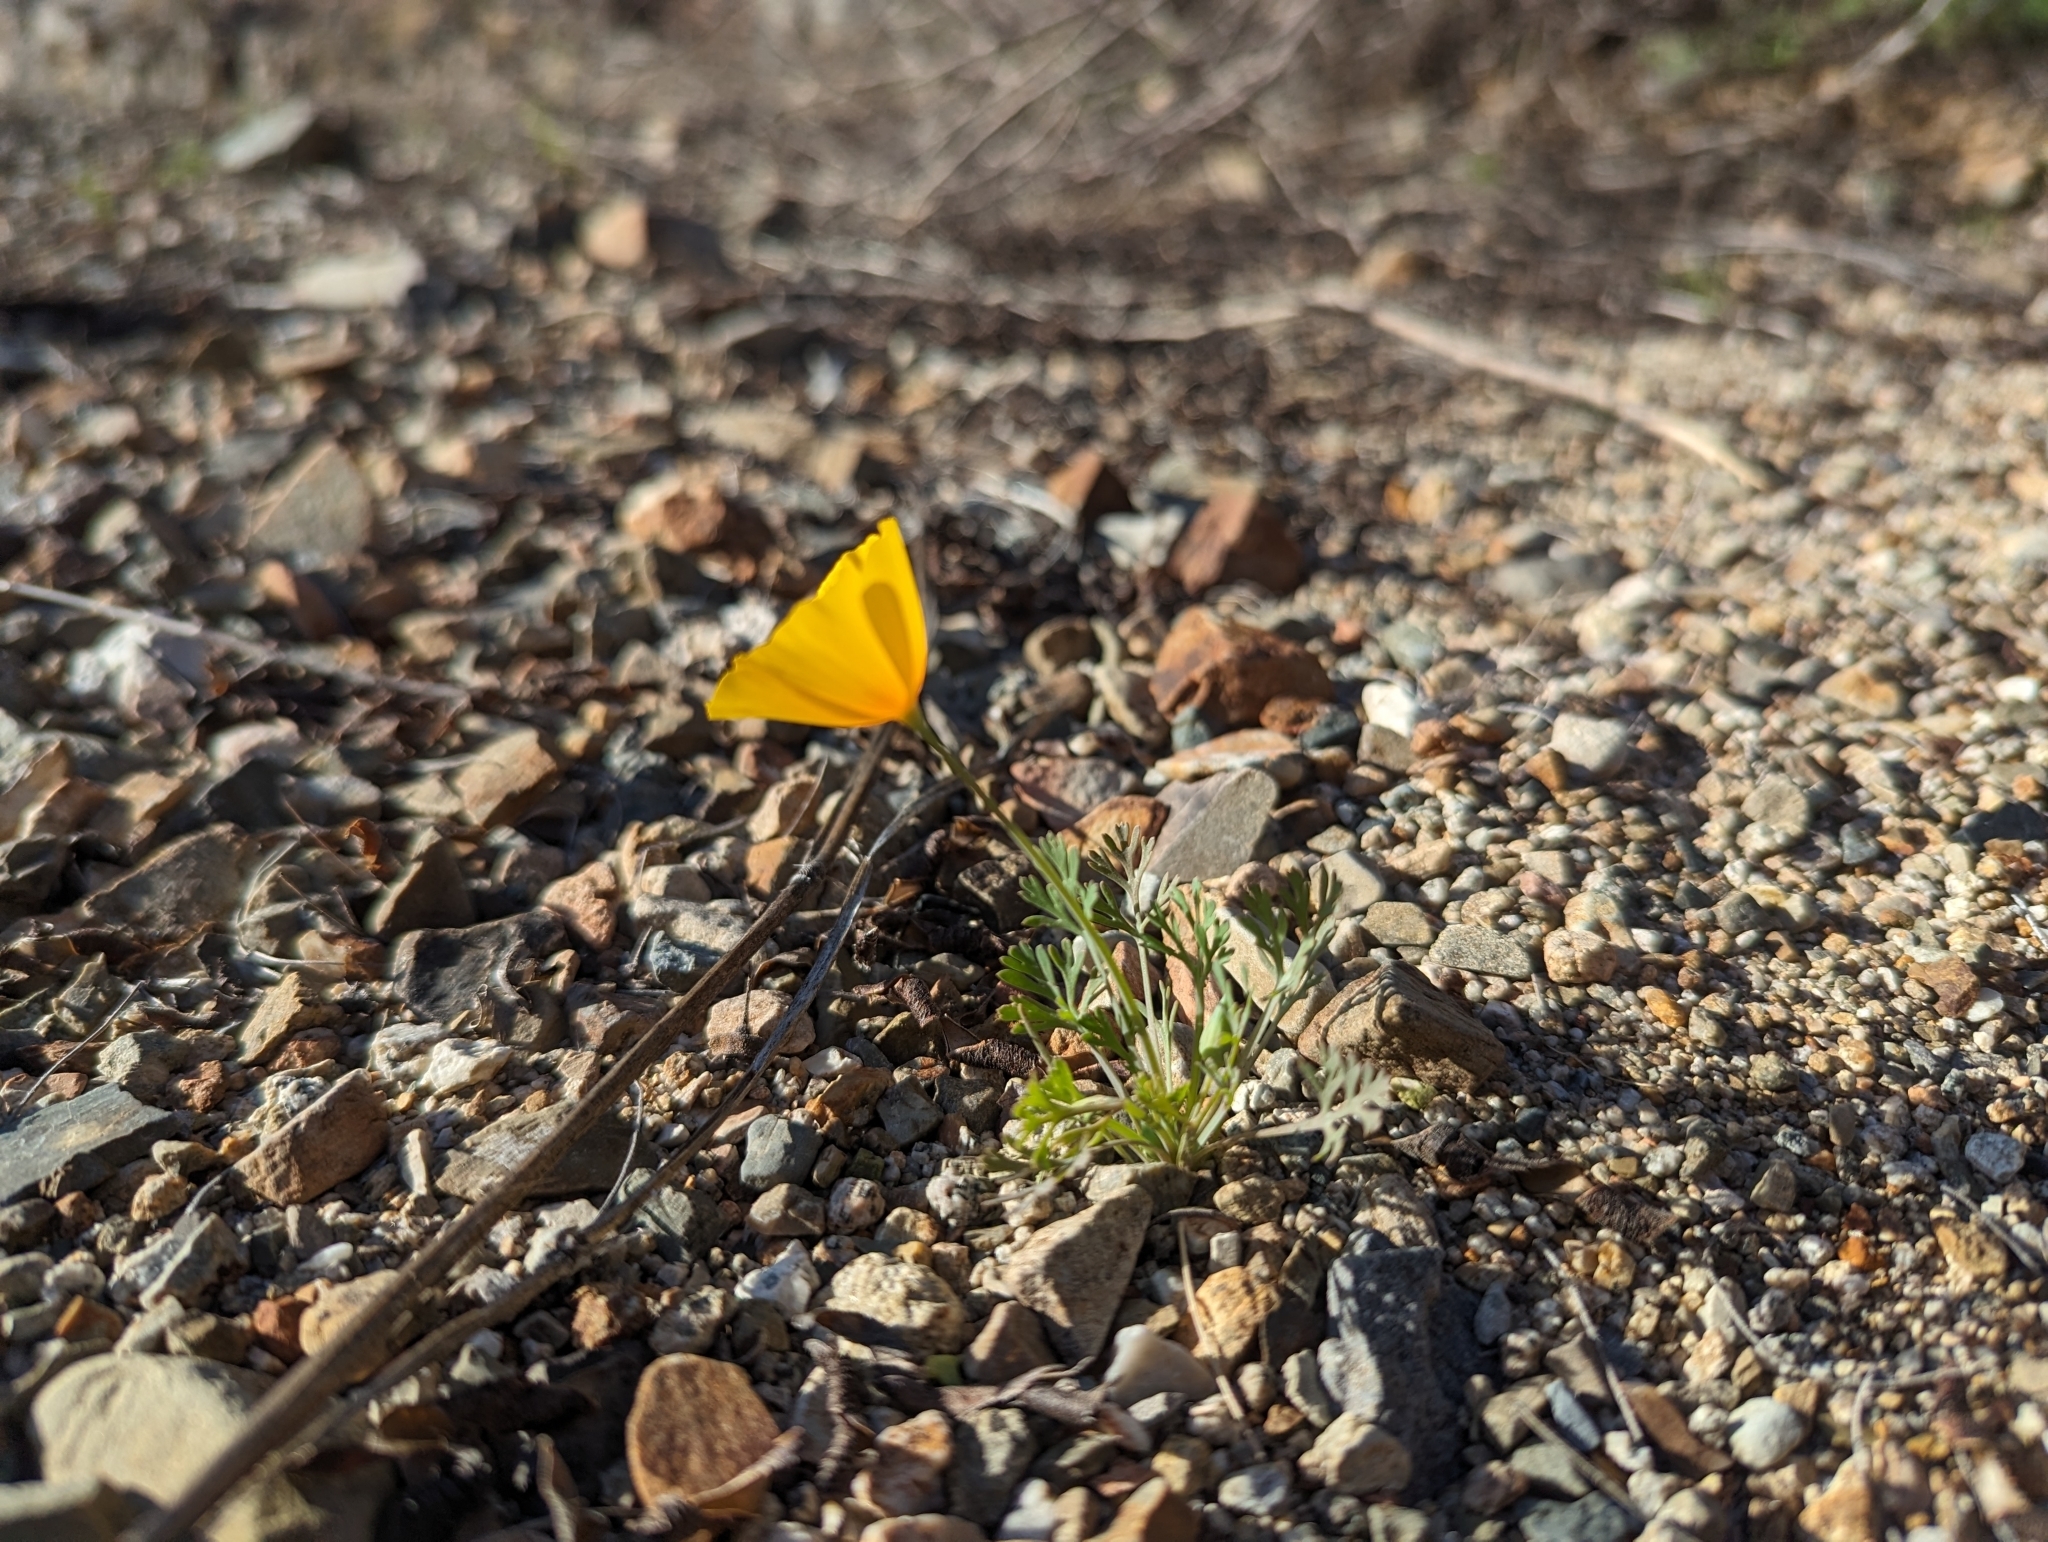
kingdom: Plantae
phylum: Tracheophyta
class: Magnoliopsida
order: Ranunculales
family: Papaveraceae
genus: Eschscholzia
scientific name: Eschscholzia californica
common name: California poppy
